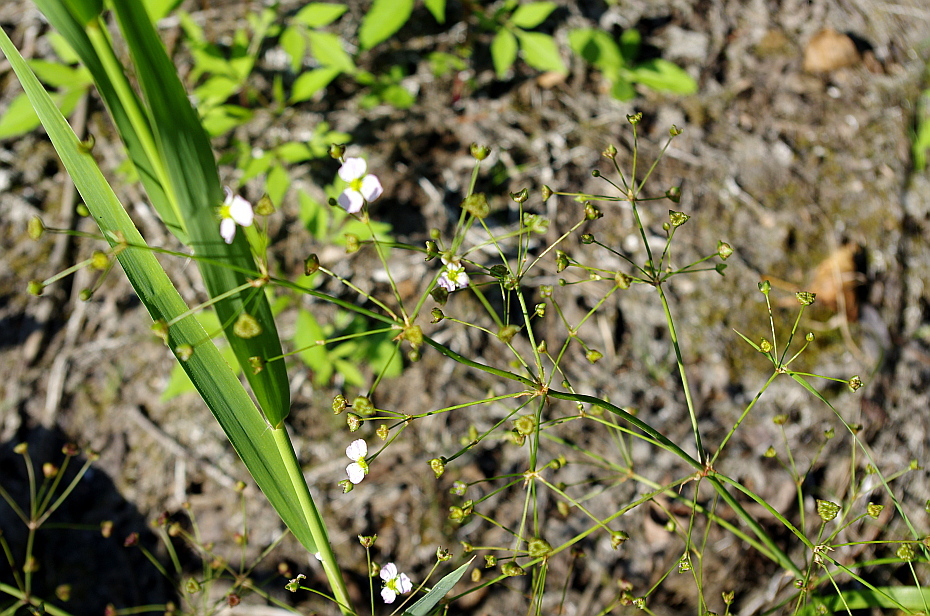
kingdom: Plantae
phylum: Tracheophyta
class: Liliopsida
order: Alismatales
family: Alismataceae
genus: Alisma
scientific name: Alisma plantago-aquatica
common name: Water-plantain
